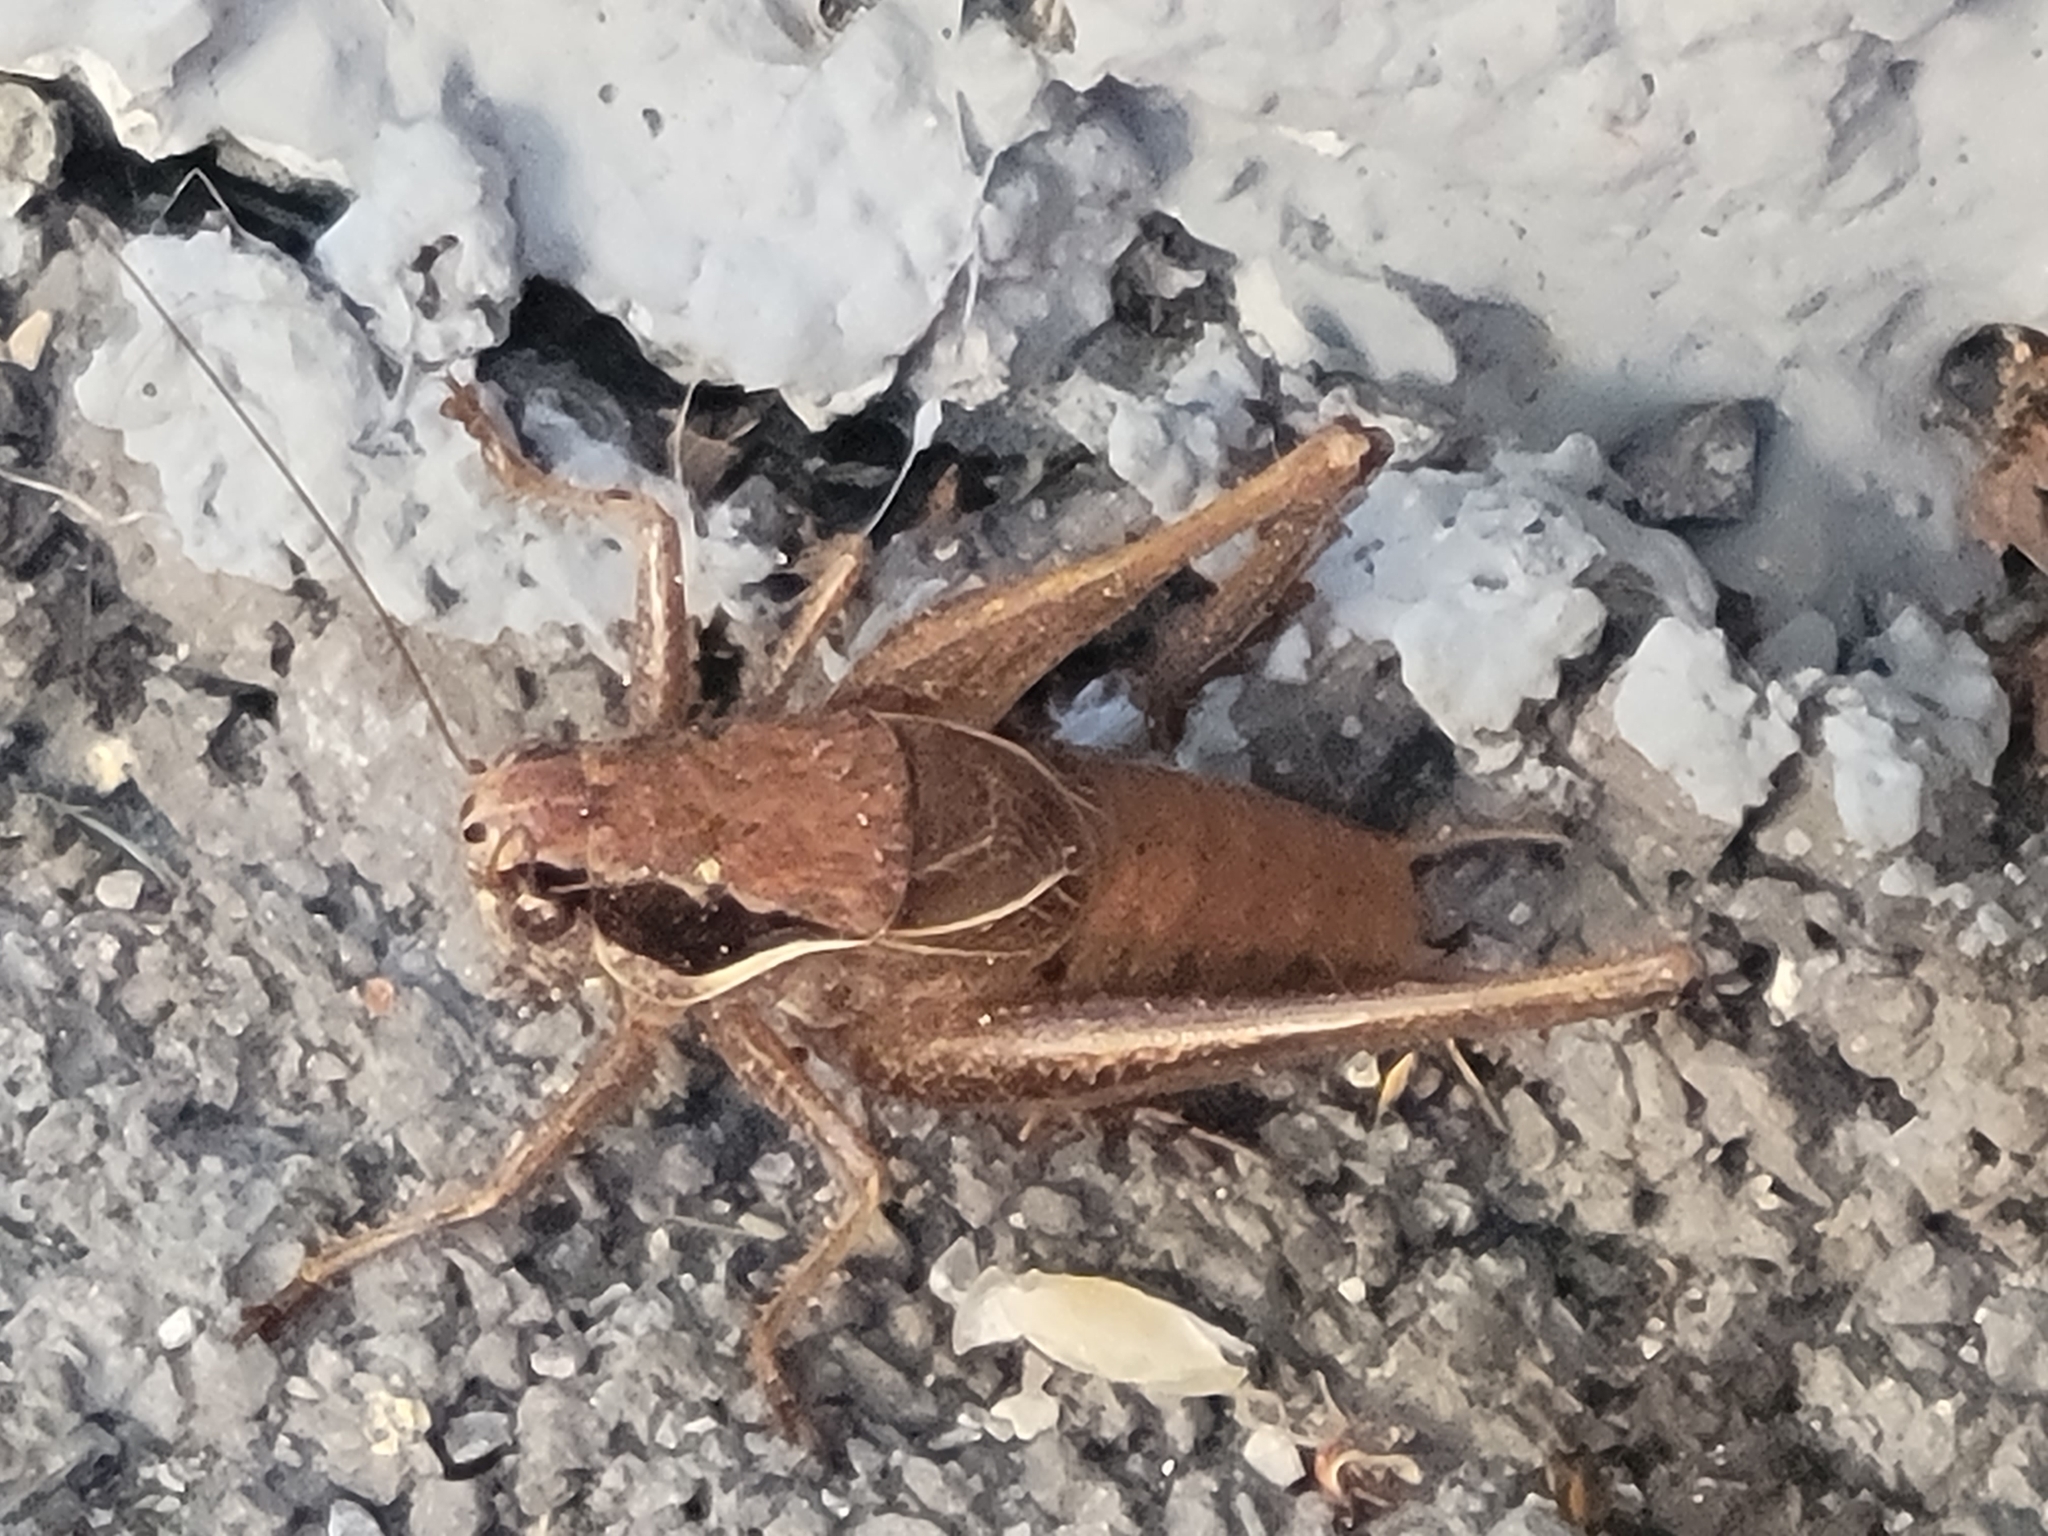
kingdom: Animalia
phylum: Arthropoda
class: Insecta
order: Orthoptera
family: Tettigoniidae
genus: Pholidoptera
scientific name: Pholidoptera littoralis
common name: Littoral dark bush-cricket
